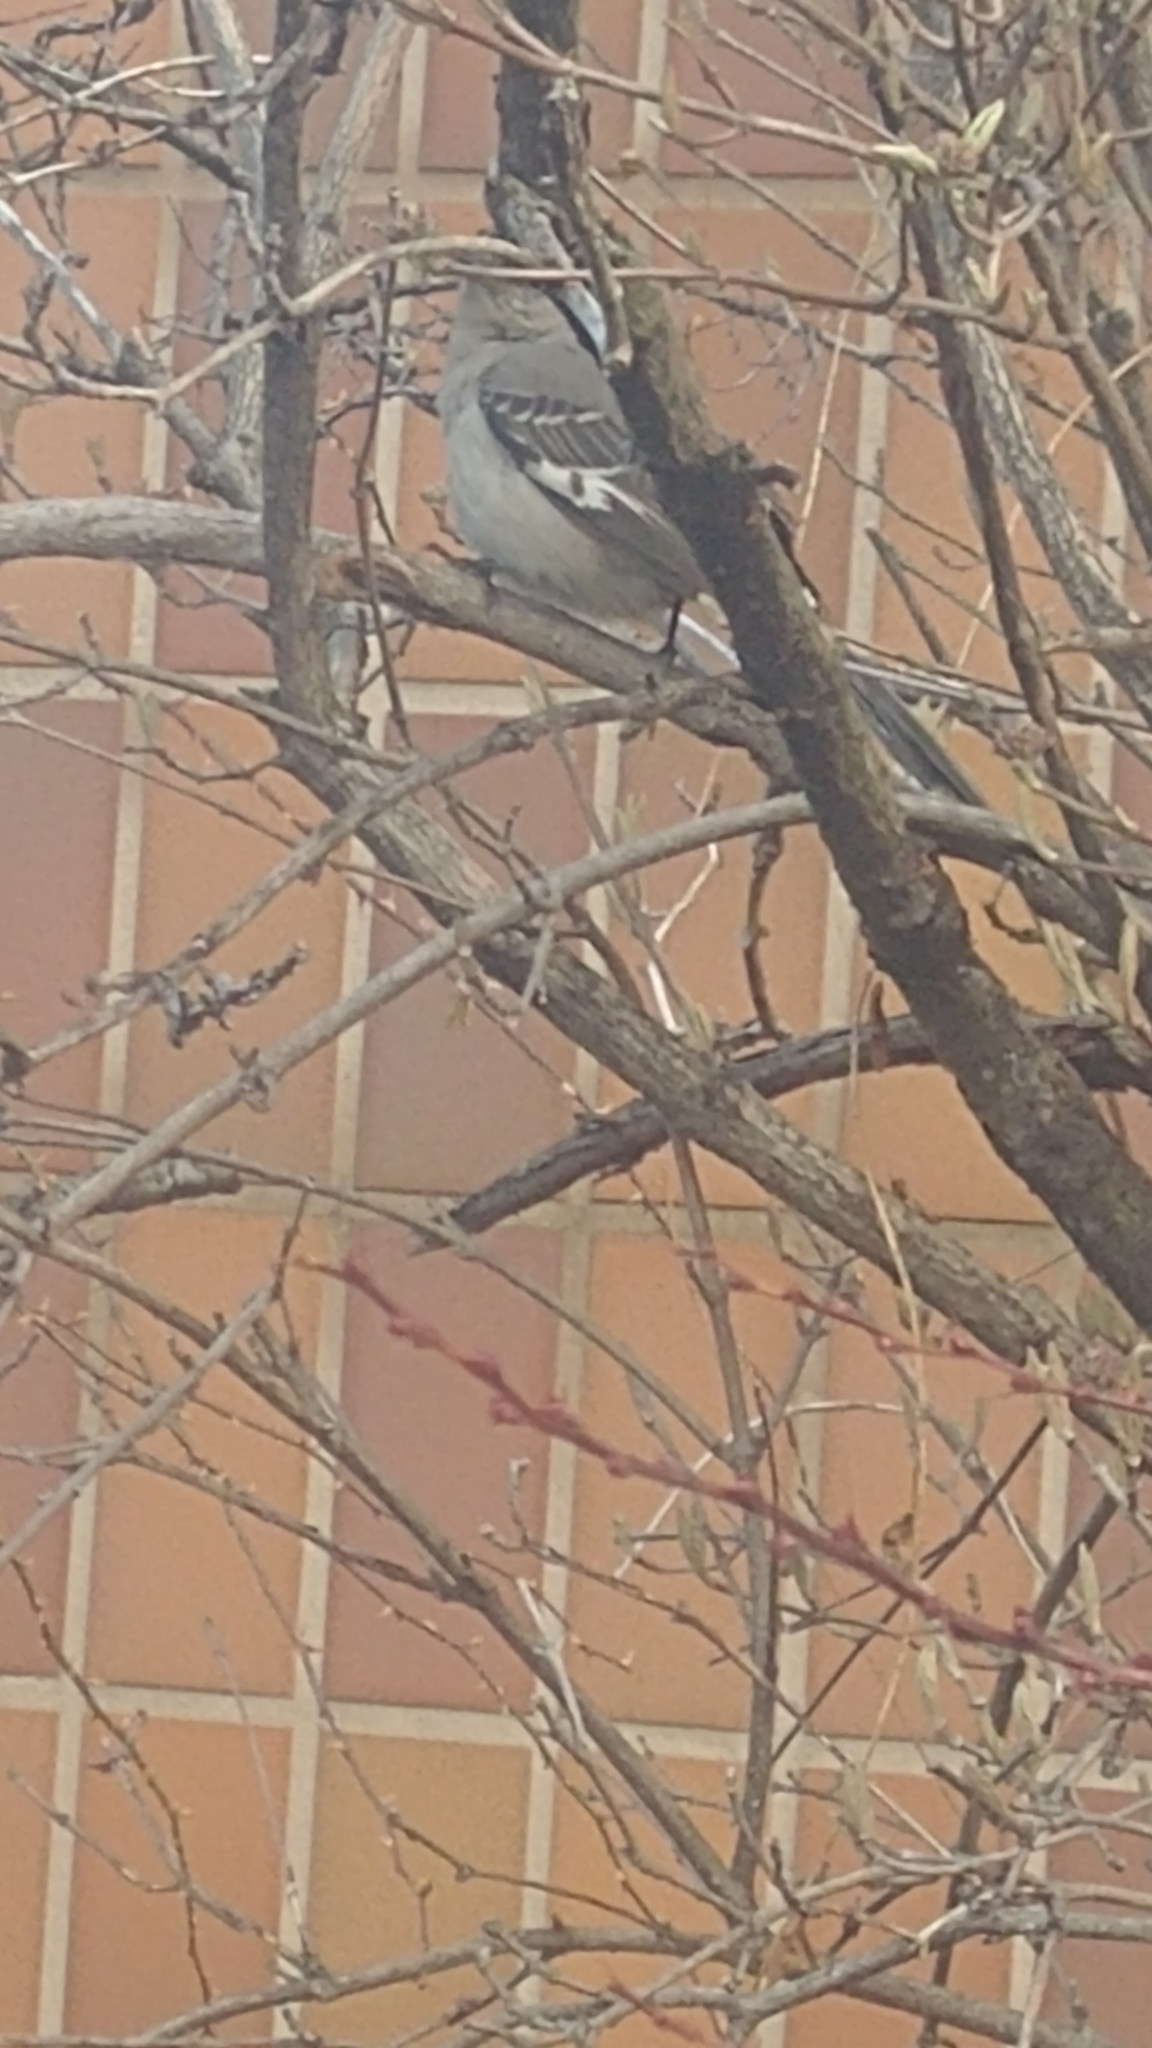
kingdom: Animalia
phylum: Chordata
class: Aves
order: Passeriformes
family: Mimidae
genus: Mimus
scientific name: Mimus polyglottos
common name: Northern mockingbird
